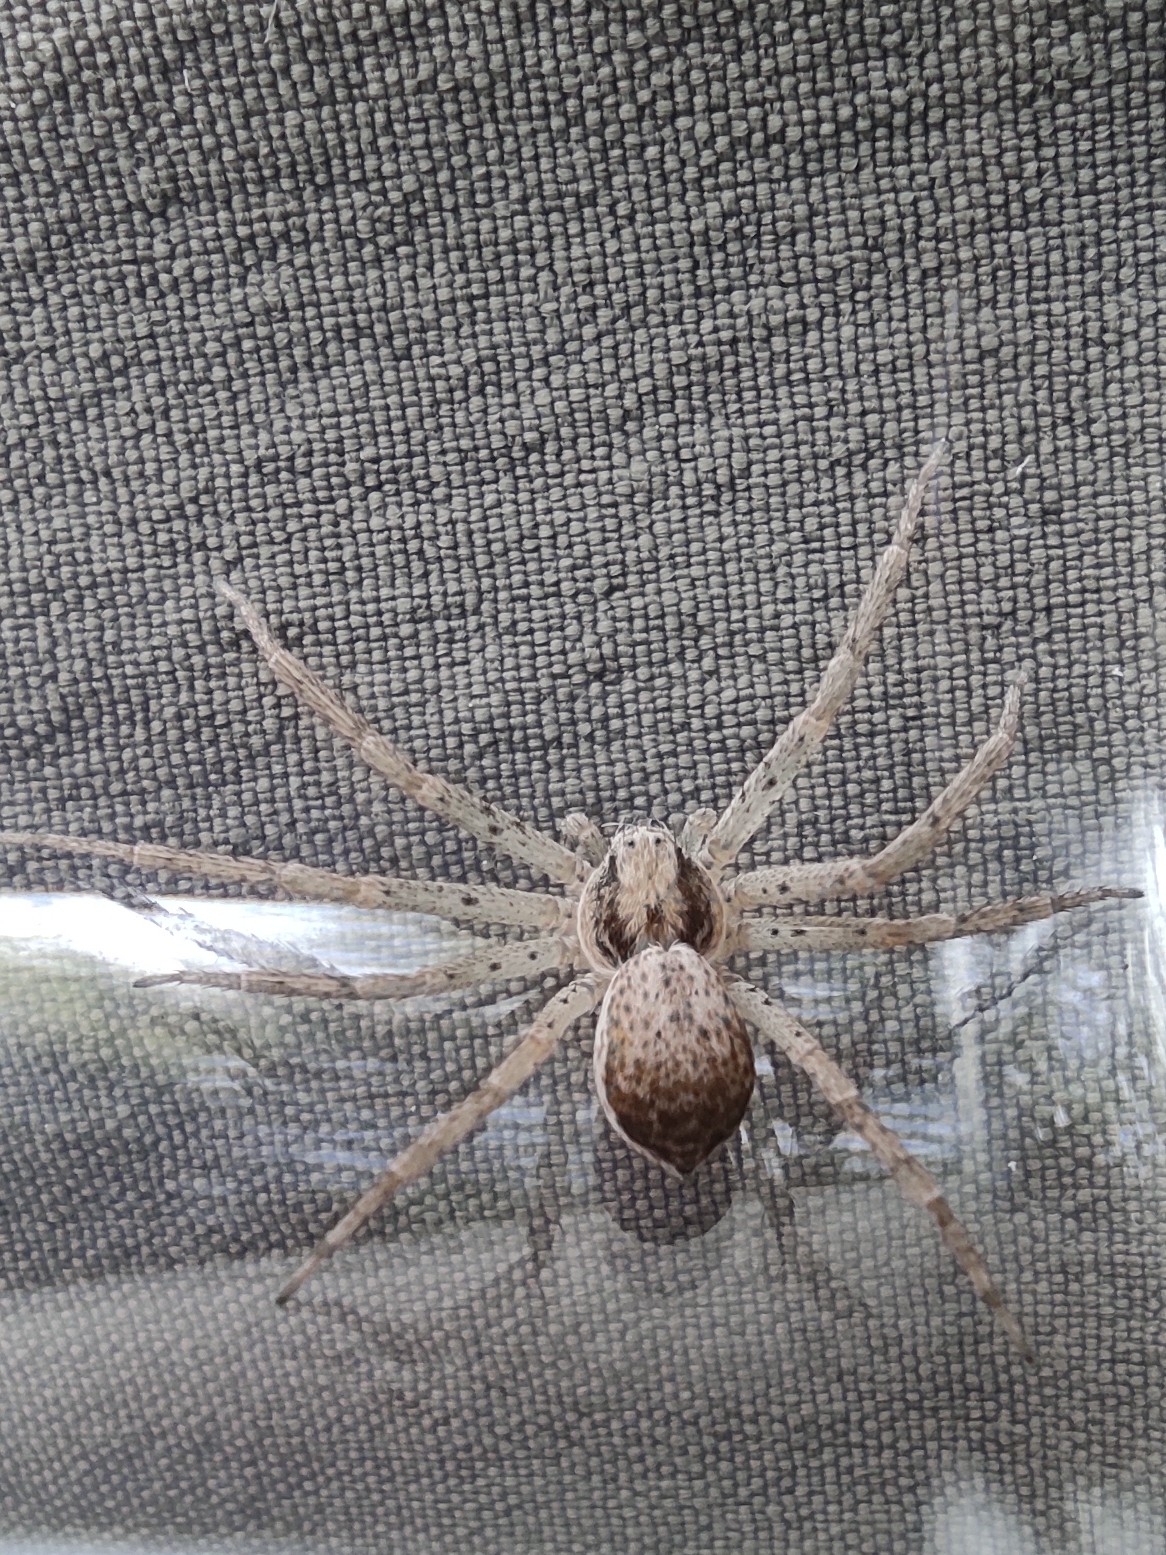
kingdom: Animalia
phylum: Arthropoda
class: Arachnida
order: Araneae
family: Philodromidae
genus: Philodromus
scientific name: Philodromus dispar
